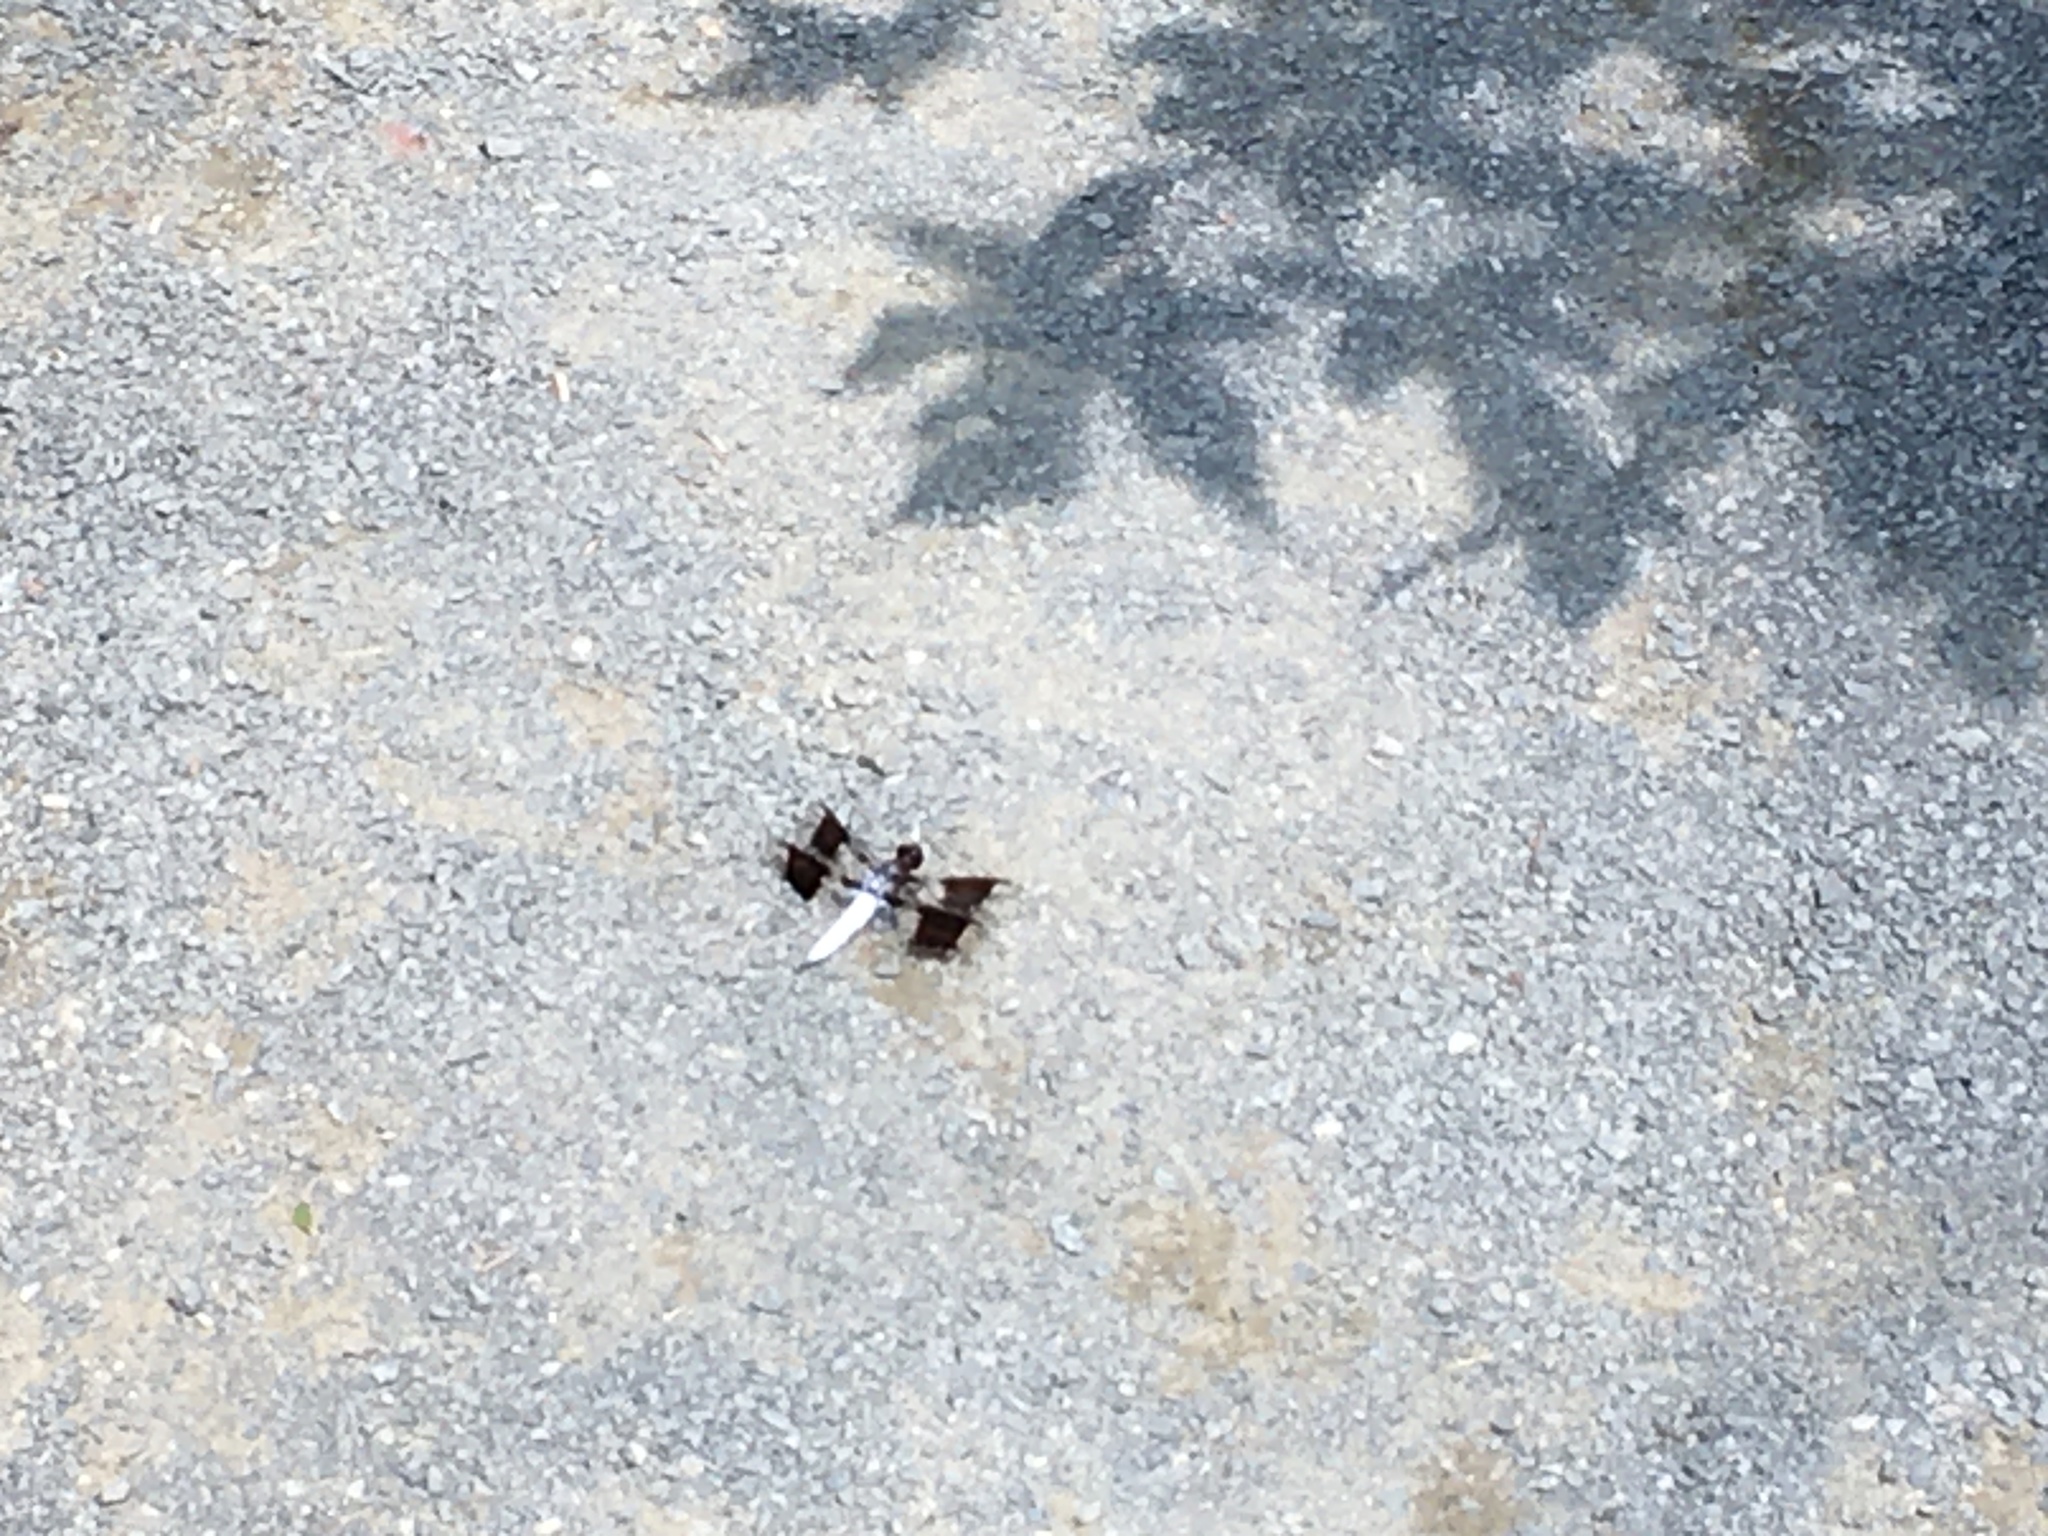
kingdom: Animalia
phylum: Arthropoda
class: Insecta
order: Odonata
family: Libellulidae
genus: Plathemis
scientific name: Plathemis lydia
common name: Common whitetail
